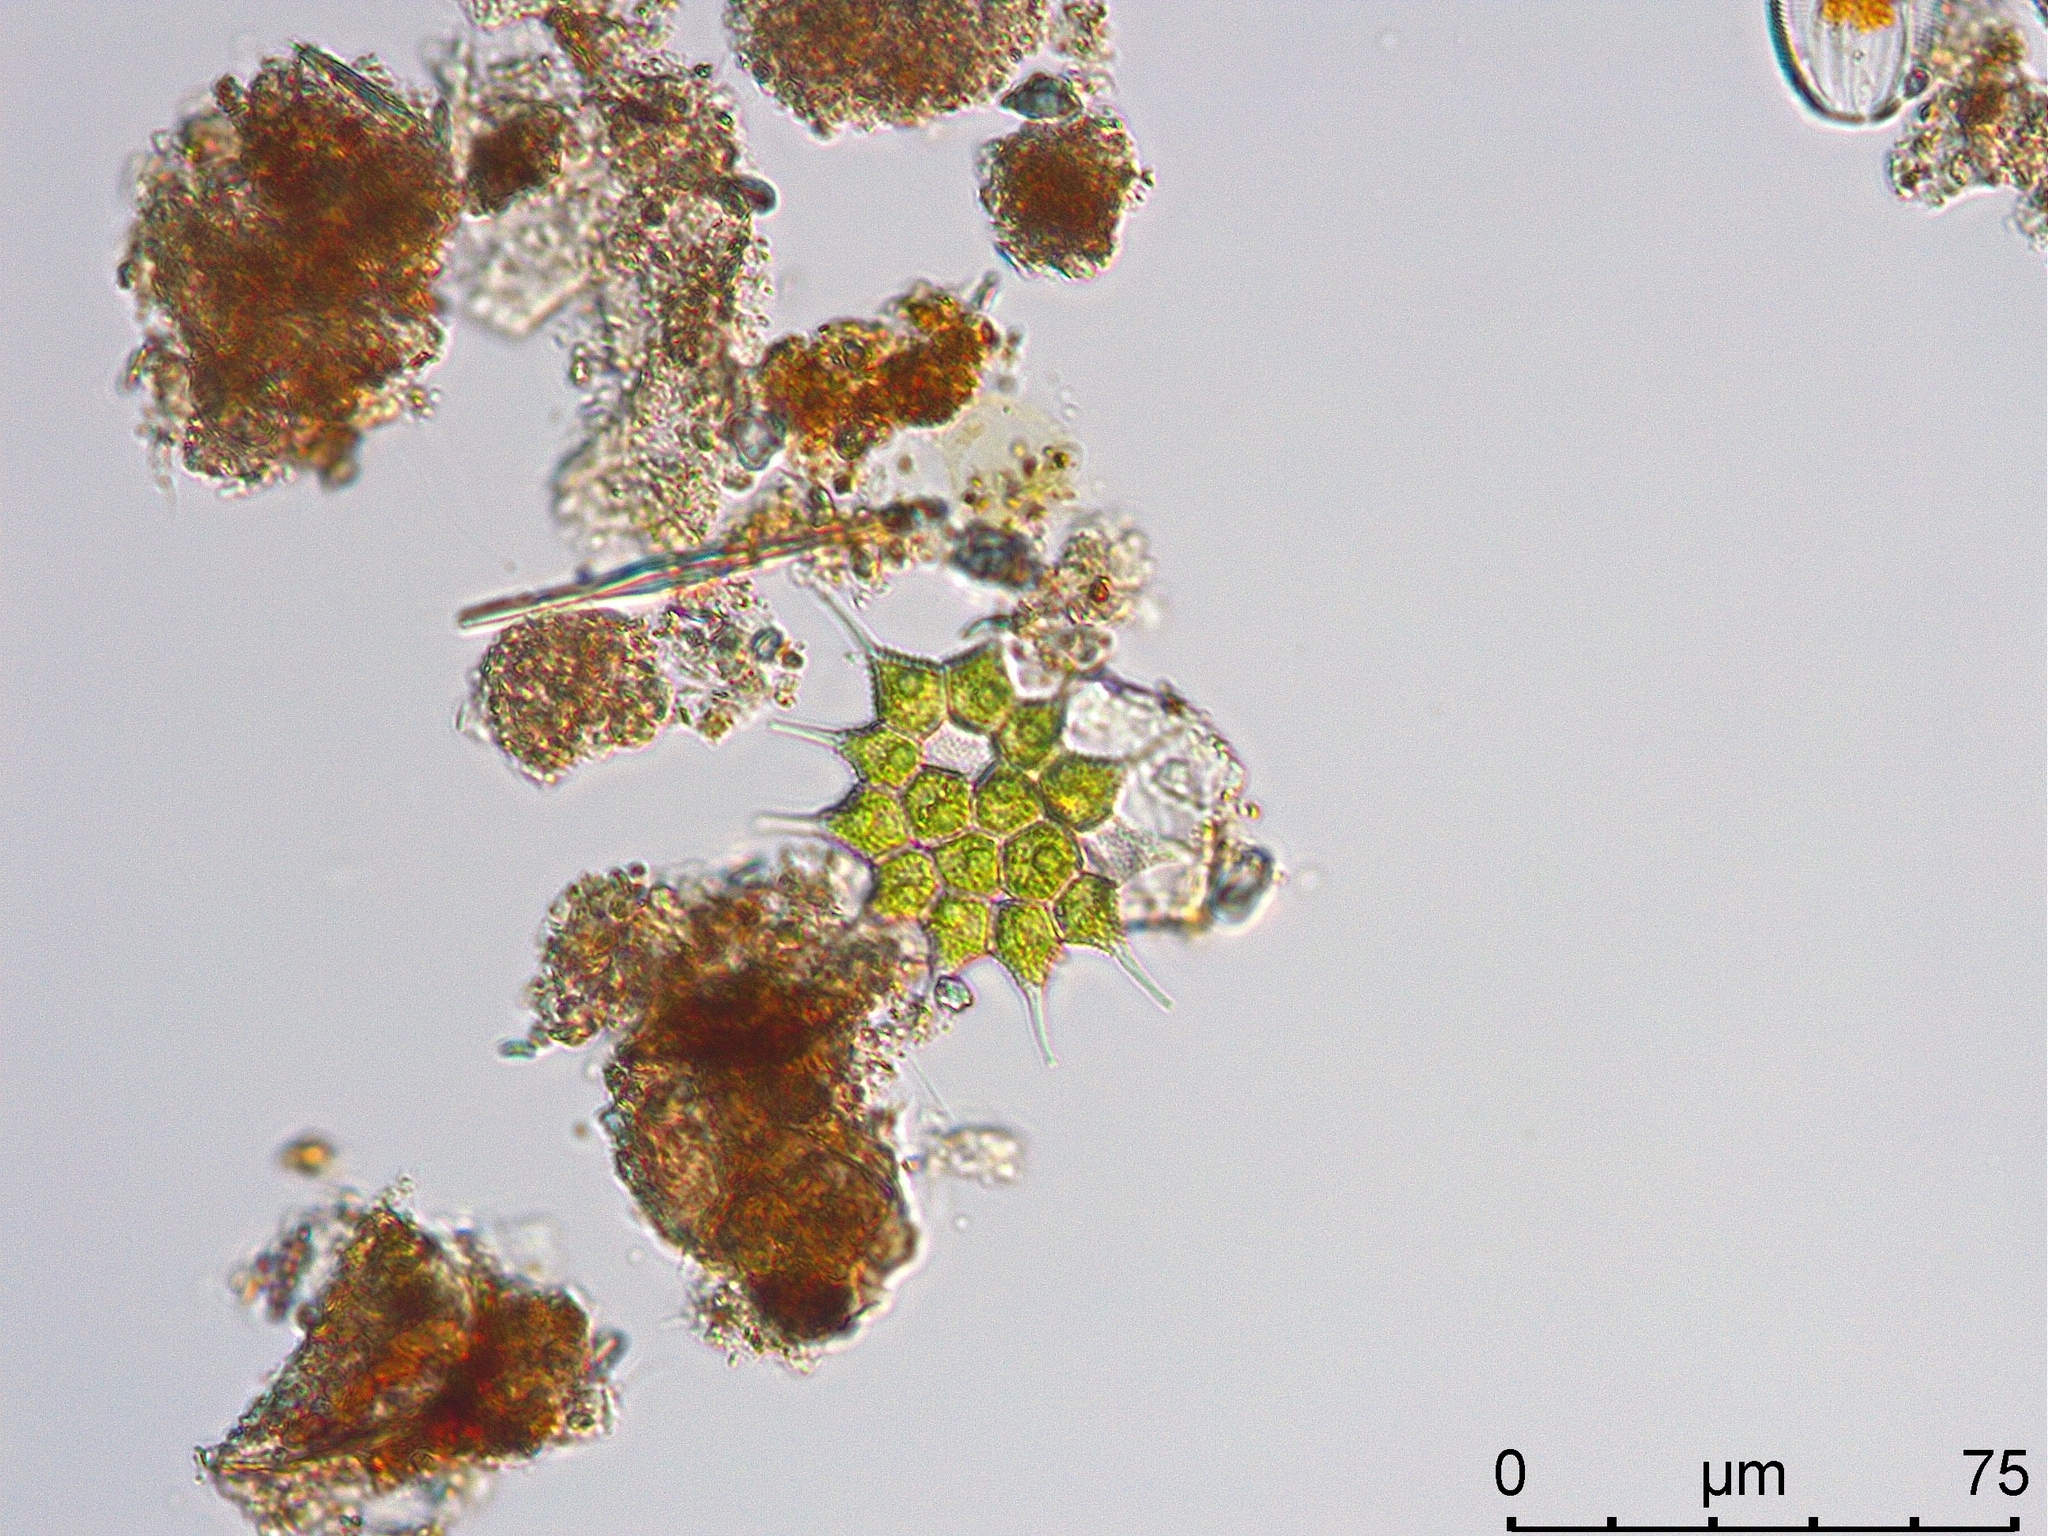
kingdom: Plantae
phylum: Chlorophyta
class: Chlorophyceae
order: Sphaeropleales
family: Hydrodictyaceae
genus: Monactinus
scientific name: Monactinus simplex
